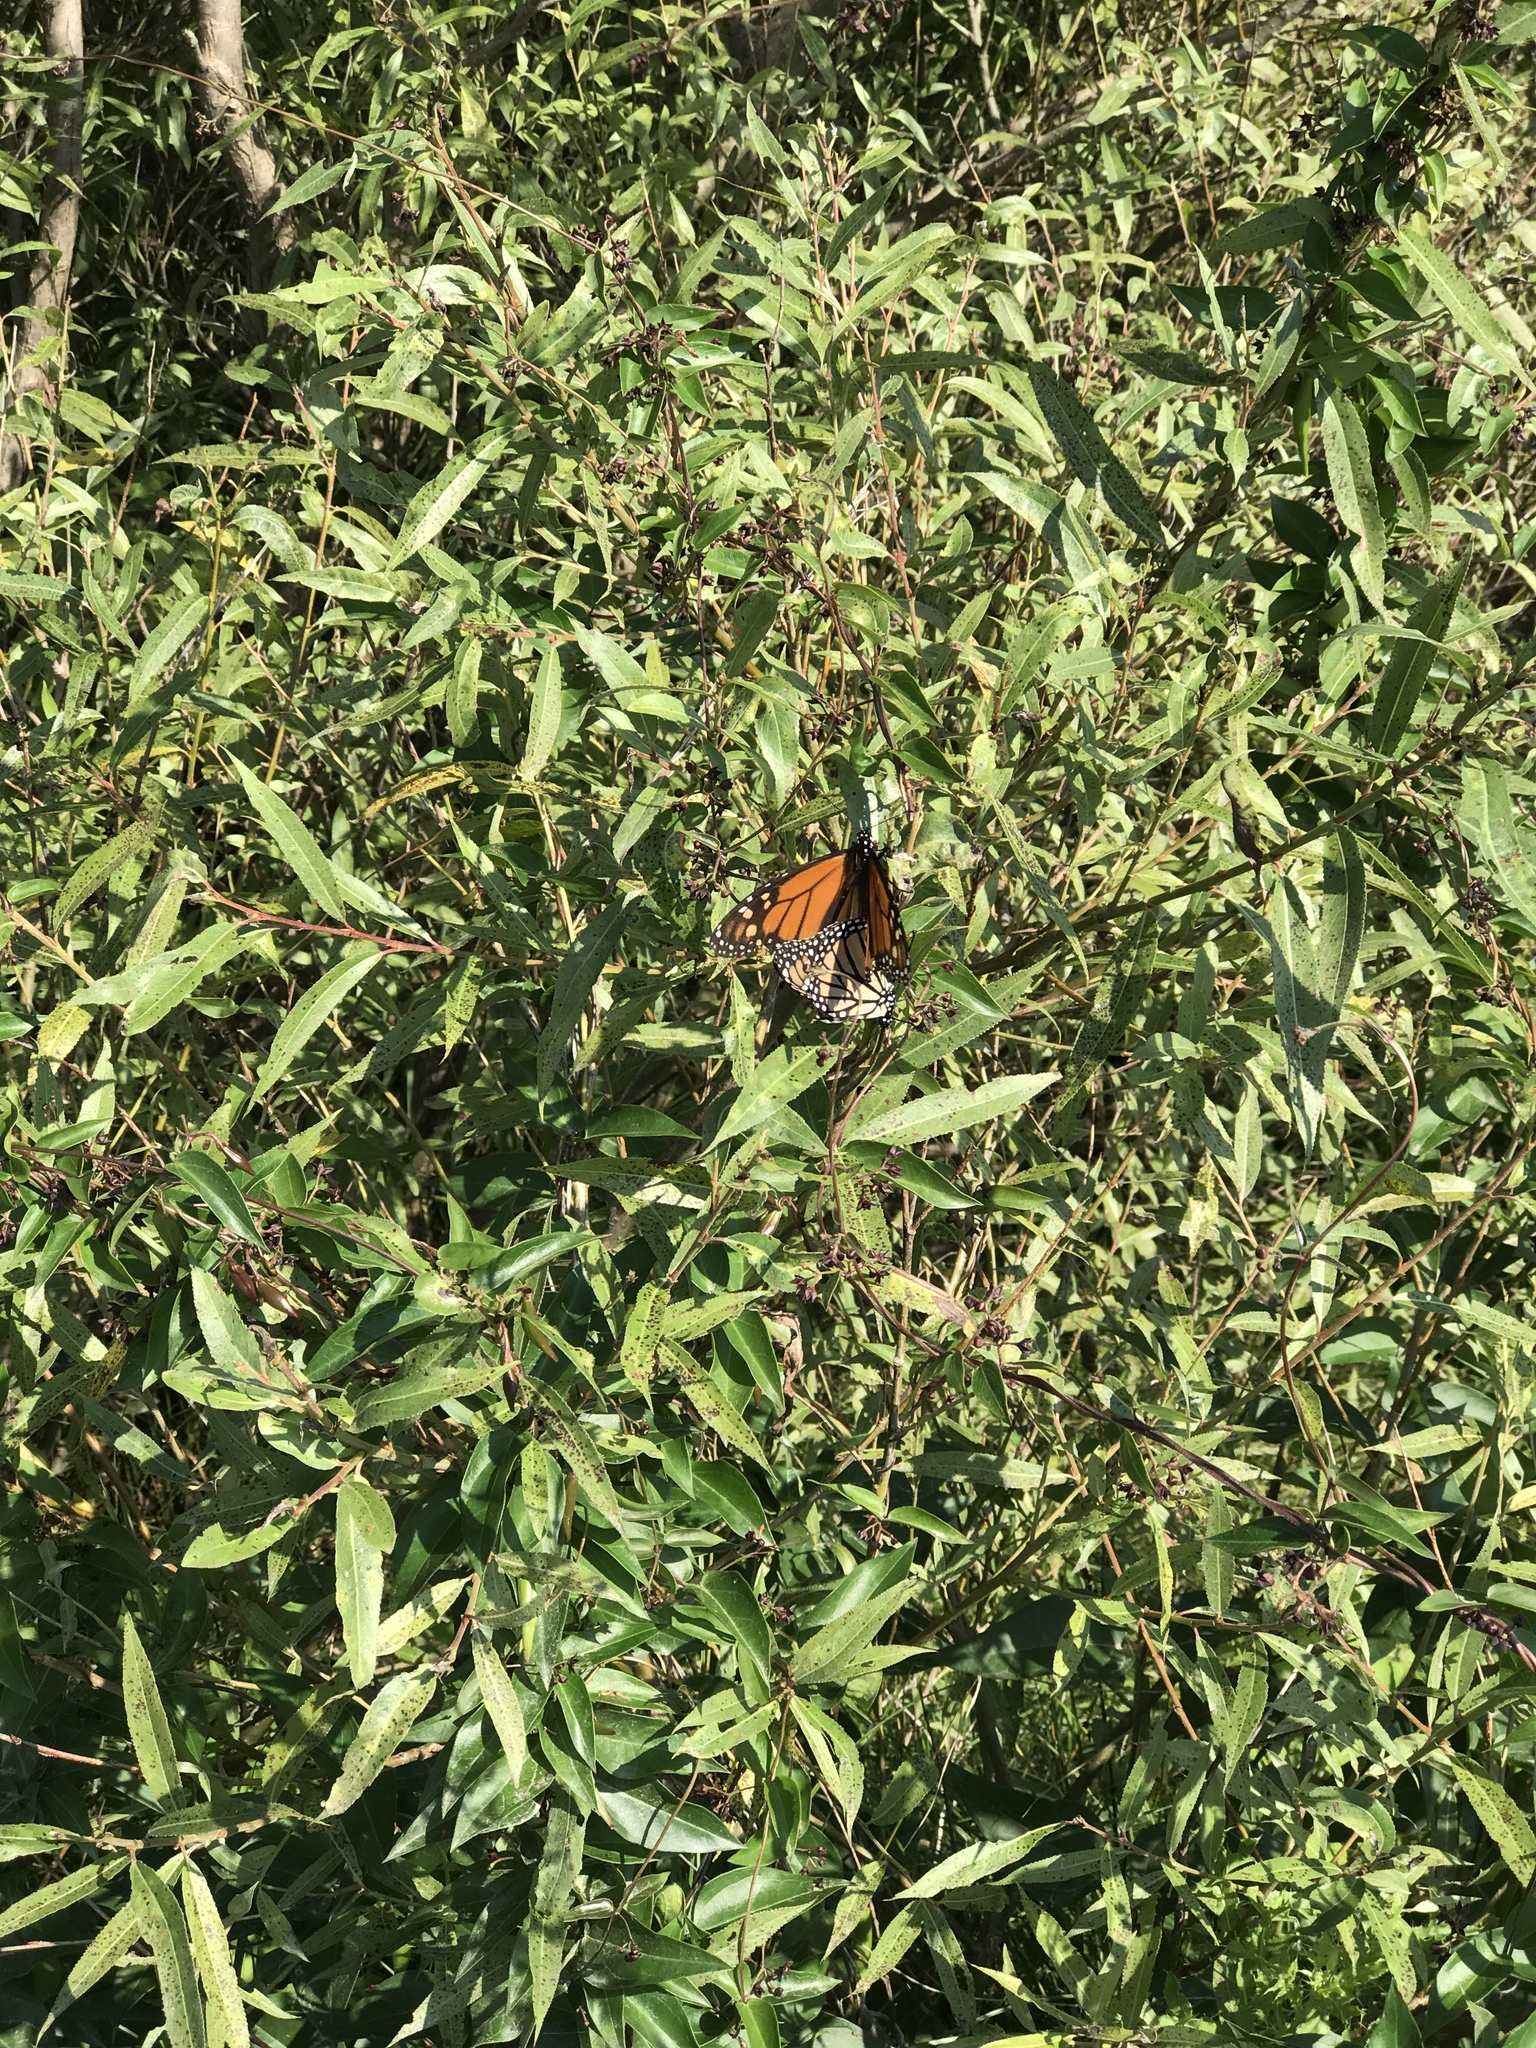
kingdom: Animalia
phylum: Arthropoda
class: Insecta
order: Lepidoptera
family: Nymphalidae
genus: Danaus
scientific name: Danaus plexippus
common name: Monarch
